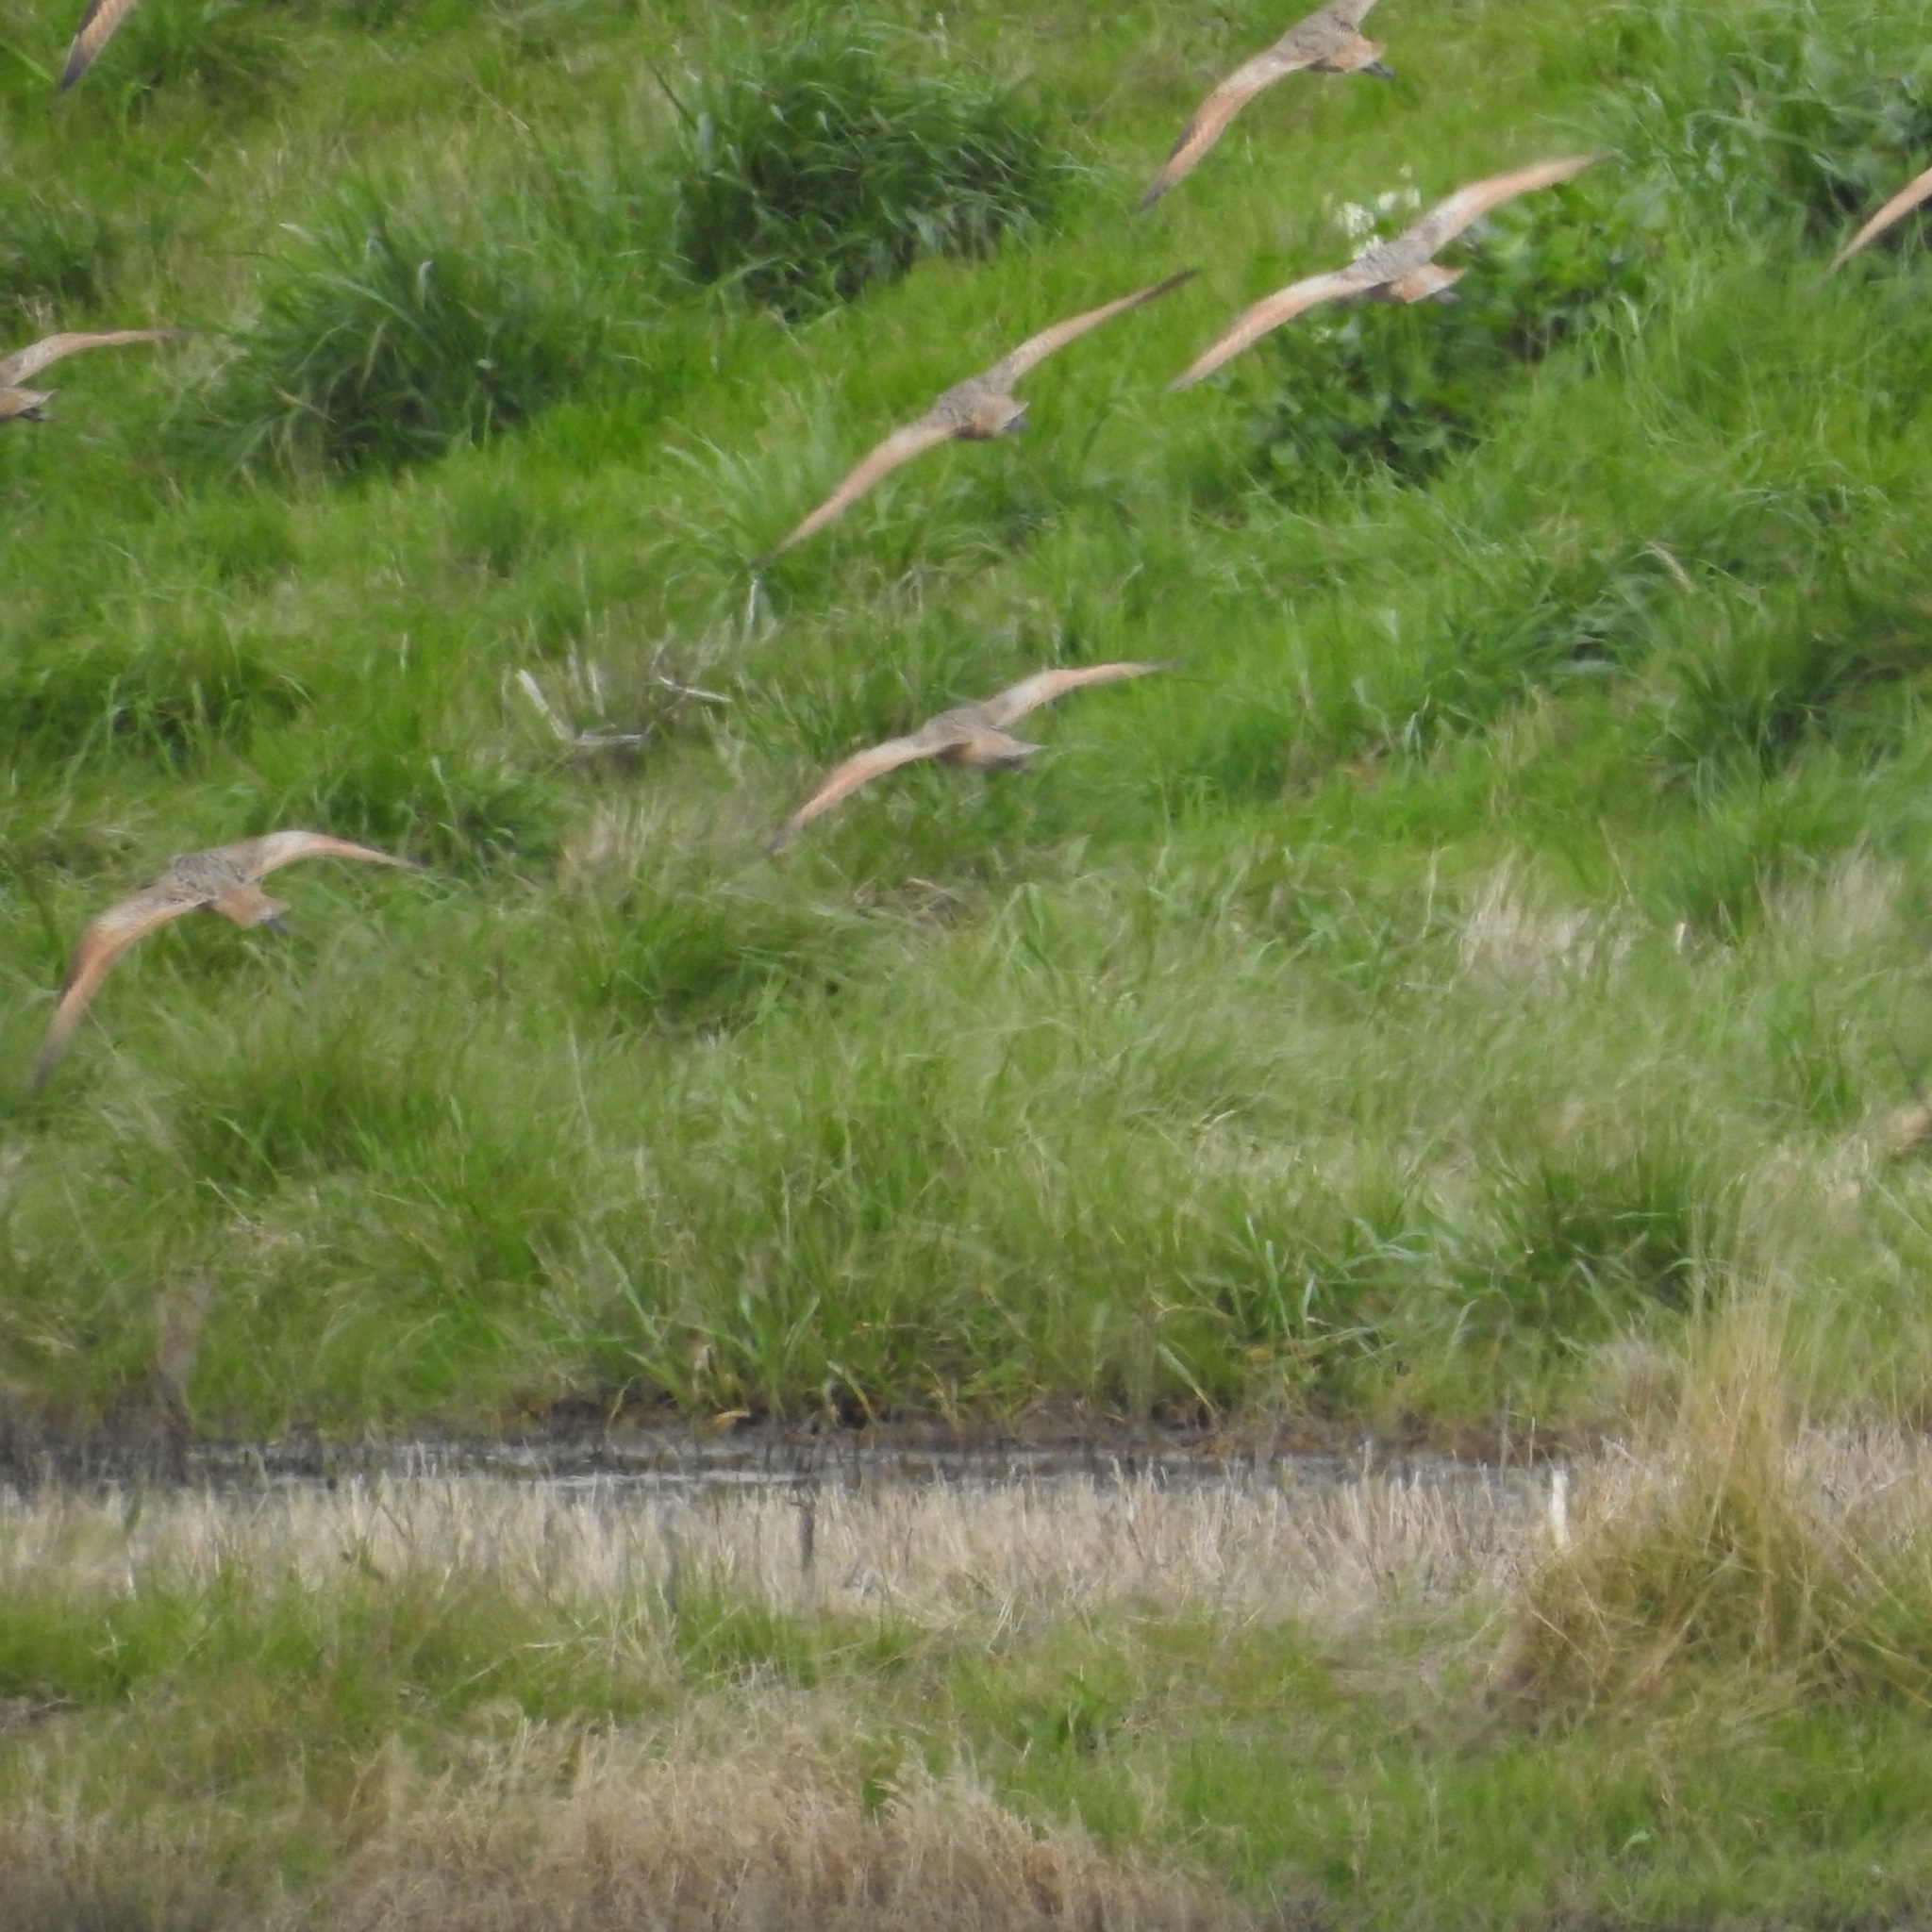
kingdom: Animalia
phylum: Chordata
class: Aves
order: Charadriiformes
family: Scolopacidae
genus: Limosa
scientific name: Limosa fedoa
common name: Marbled godwit
